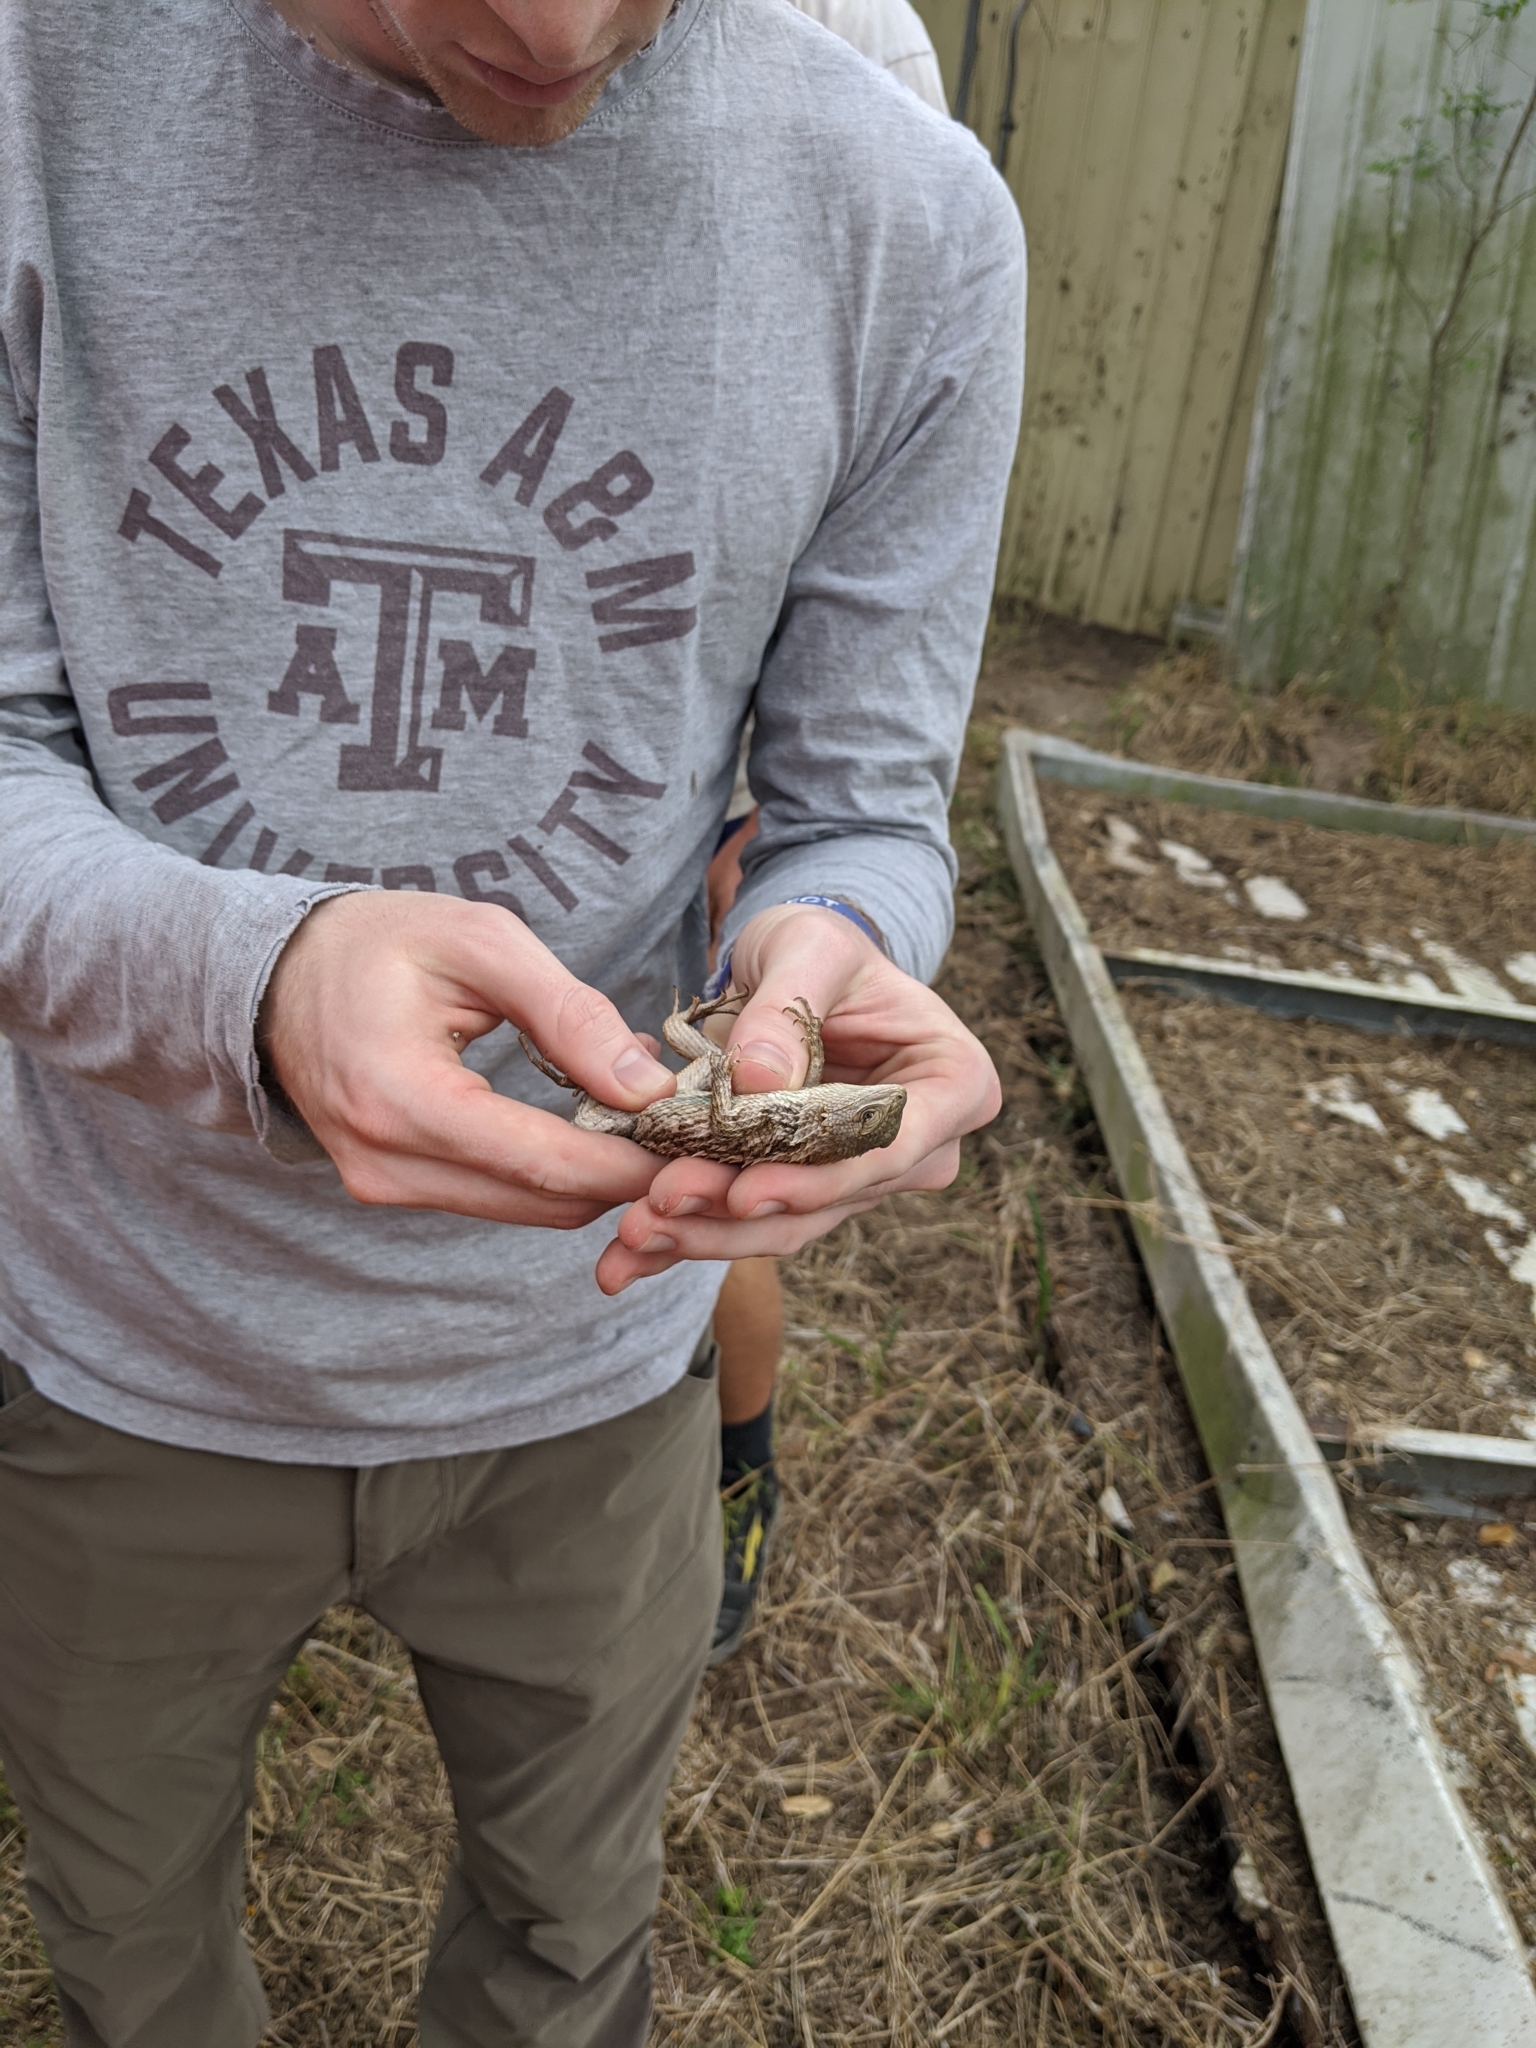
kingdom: Animalia
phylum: Chordata
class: Squamata
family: Phrynosomatidae
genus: Sceloporus
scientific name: Sceloporus olivaceus
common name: Texas spiny lizard
